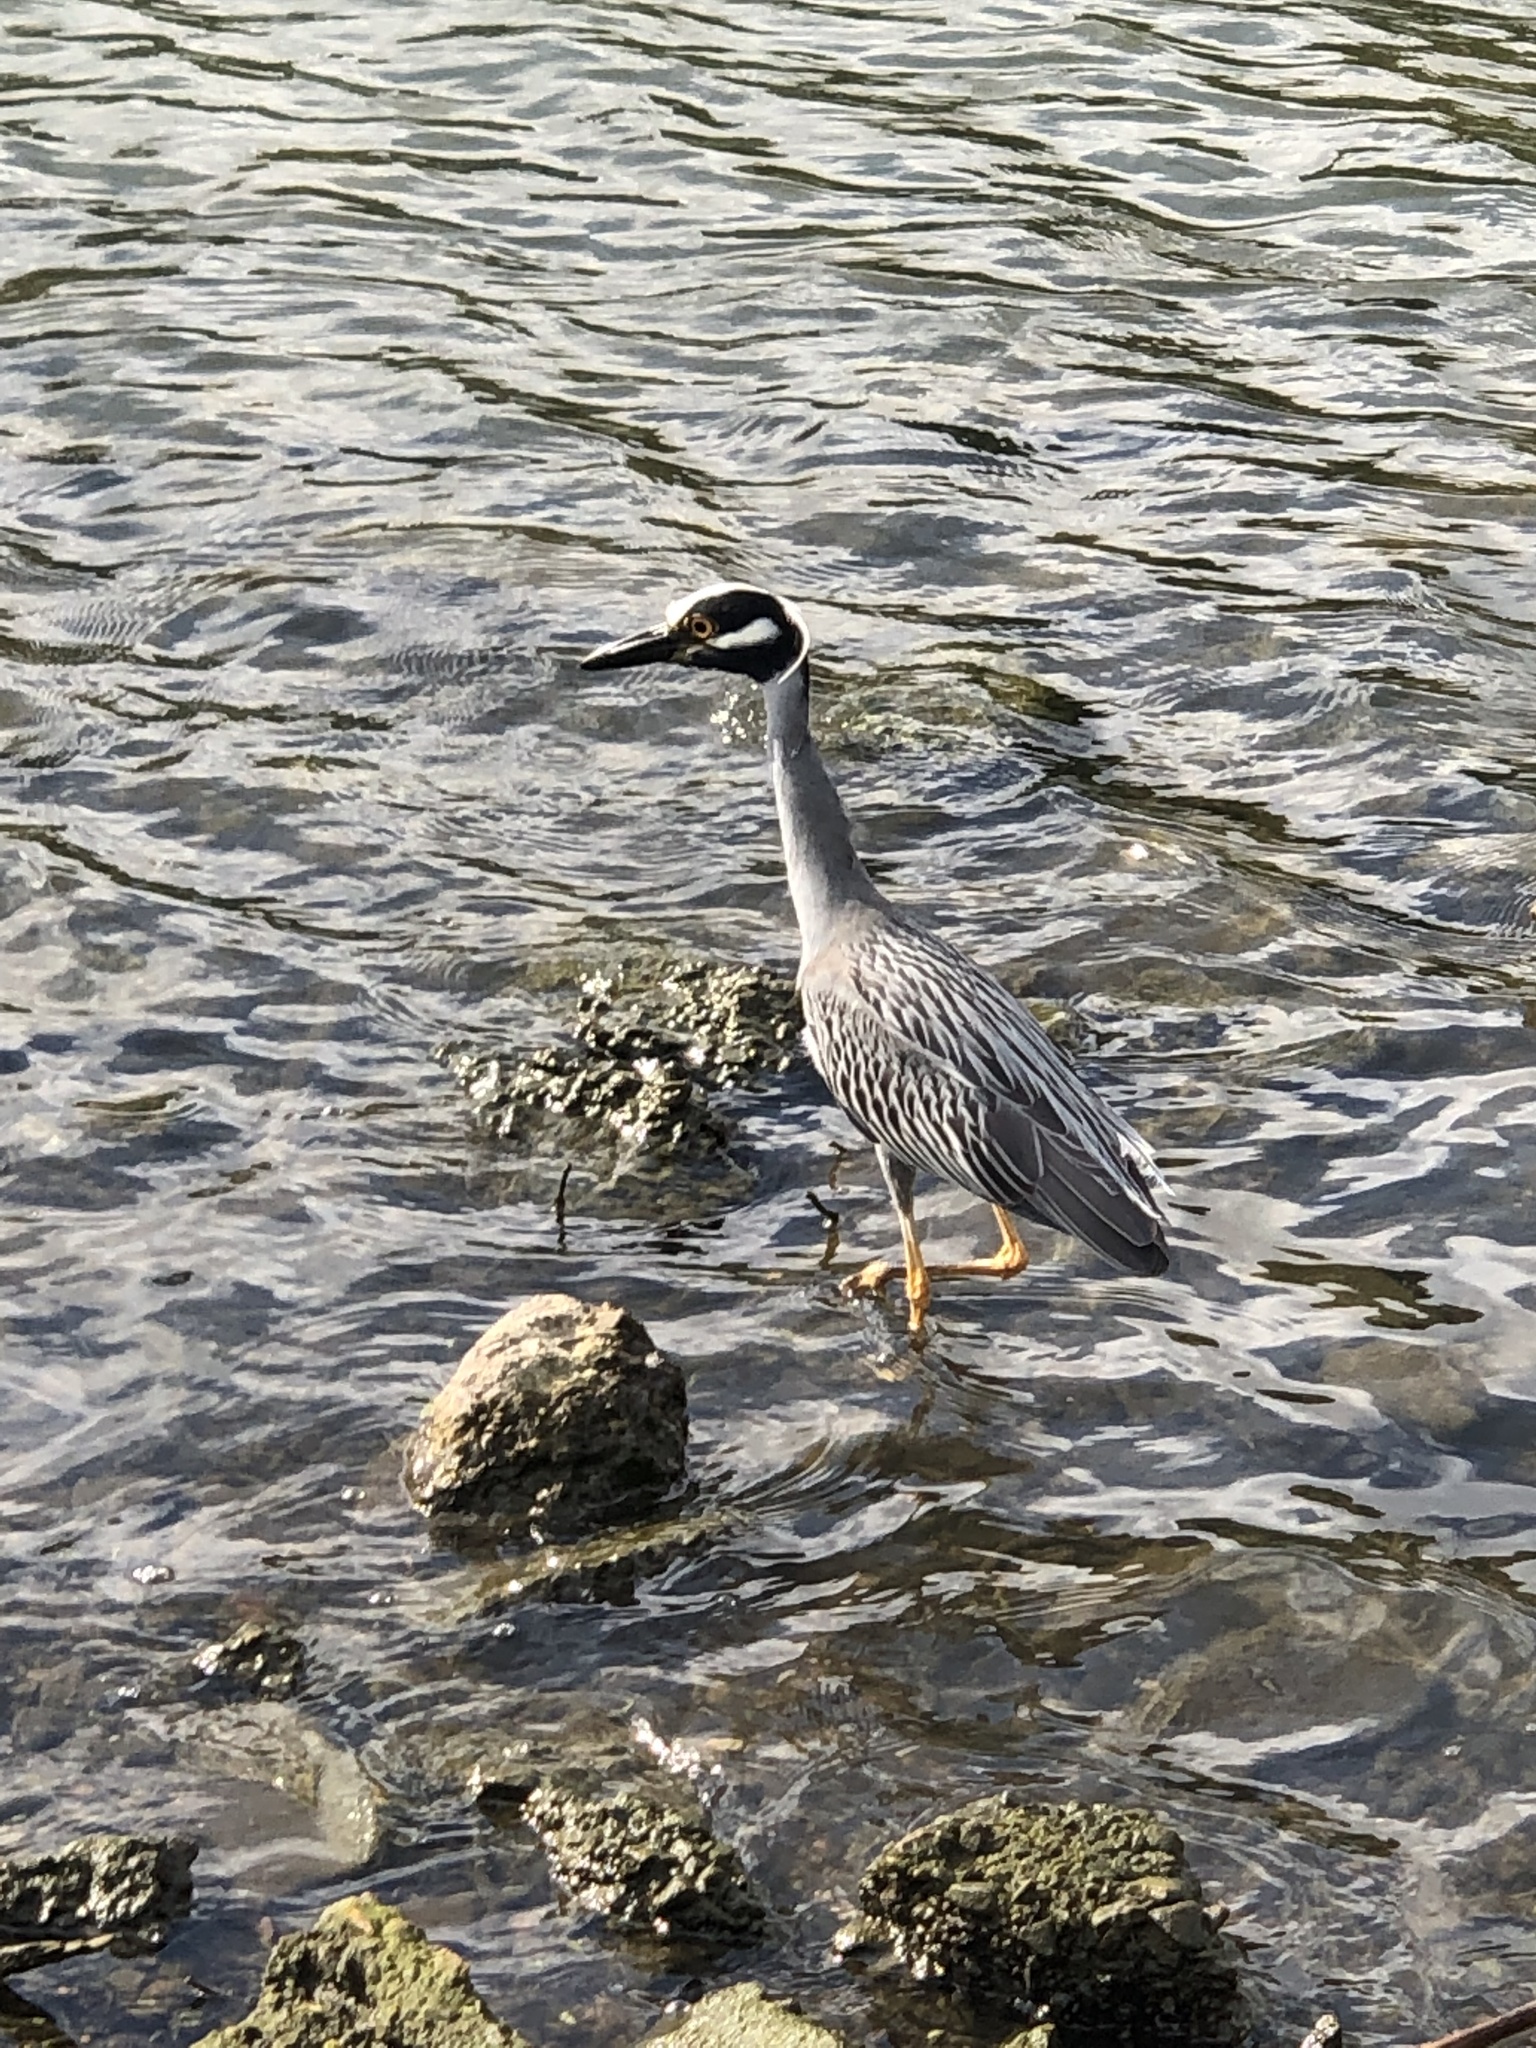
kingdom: Animalia
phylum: Chordata
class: Aves
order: Pelecaniformes
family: Ardeidae
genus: Nyctanassa
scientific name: Nyctanassa violacea
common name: Yellow-crowned night heron
